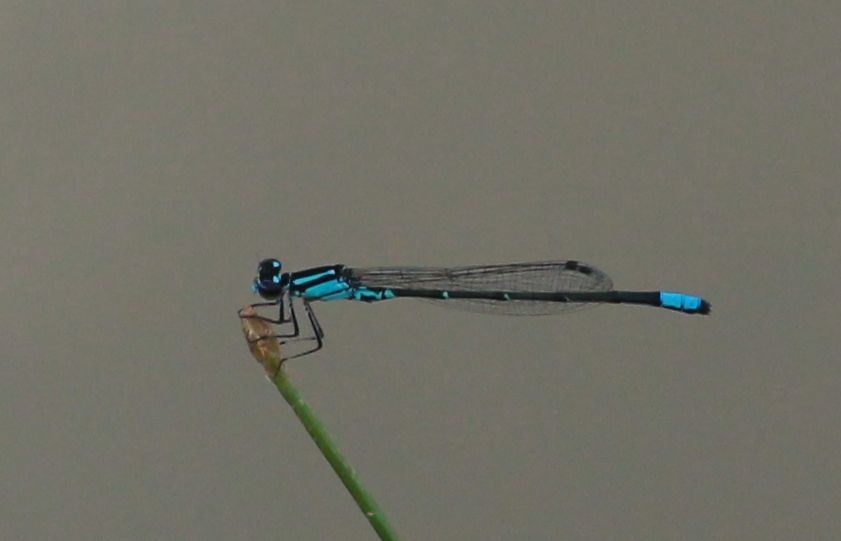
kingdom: Animalia
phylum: Arthropoda
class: Insecta
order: Odonata
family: Coenagrionidae
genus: Enallagma
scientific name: Enallagma geminatum
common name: Skimming bluet
